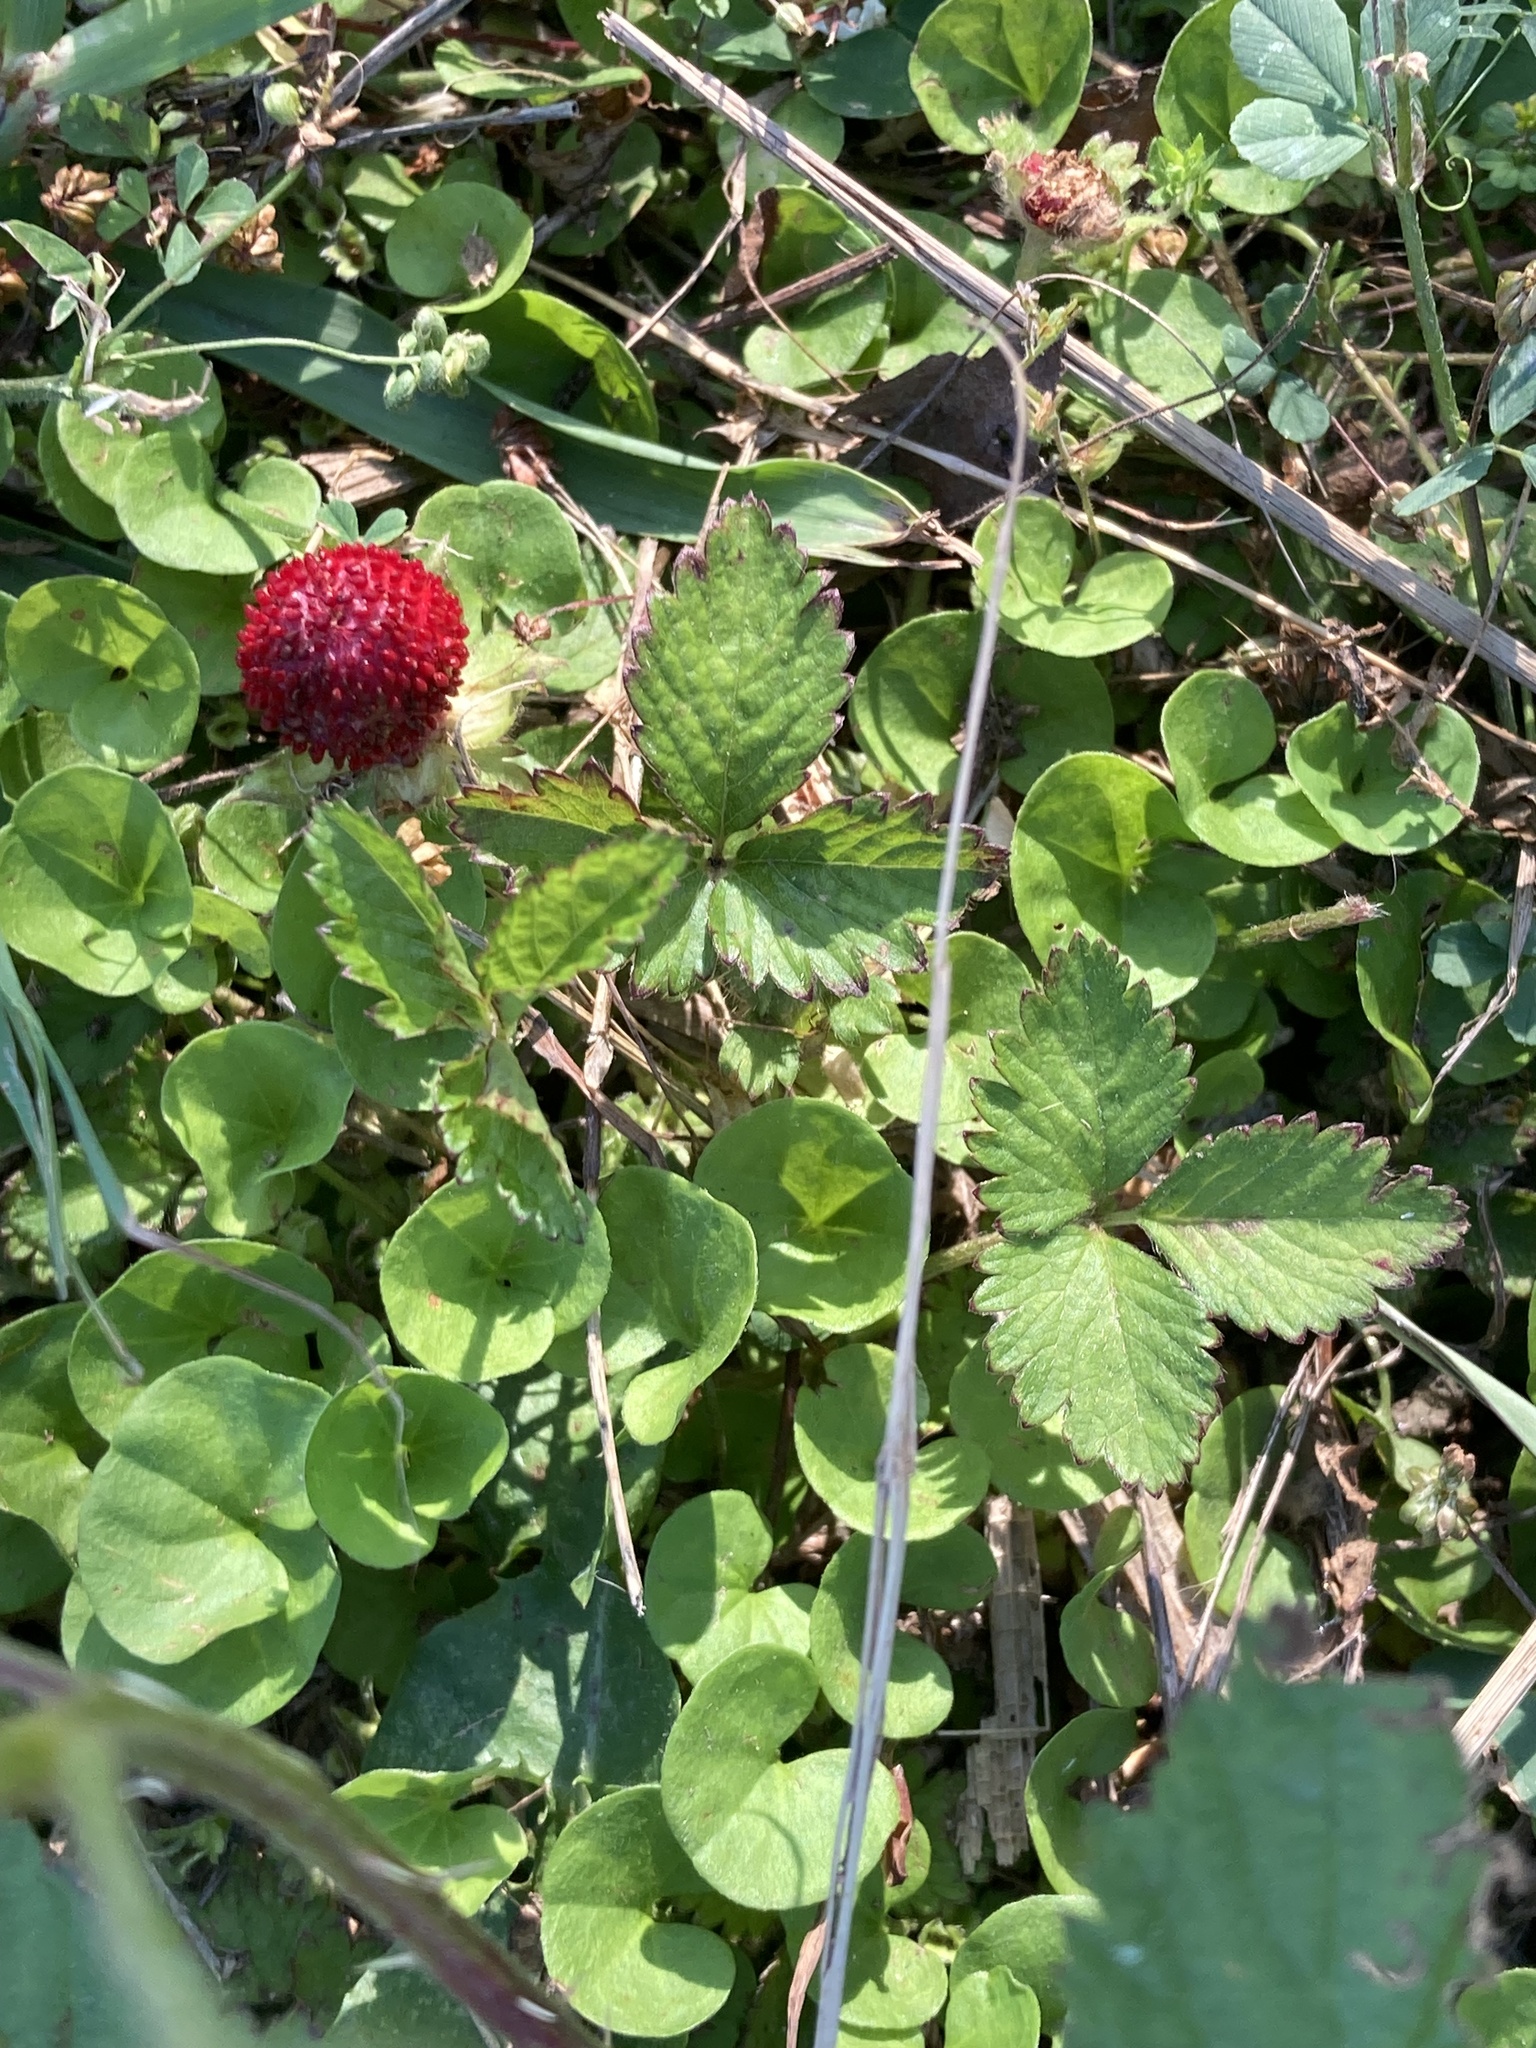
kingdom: Plantae
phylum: Tracheophyta
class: Magnoliopsida
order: Rosales
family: Rosaceae
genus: Potentilla
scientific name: Potentilla indica
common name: Yellow-flowered strawberry
